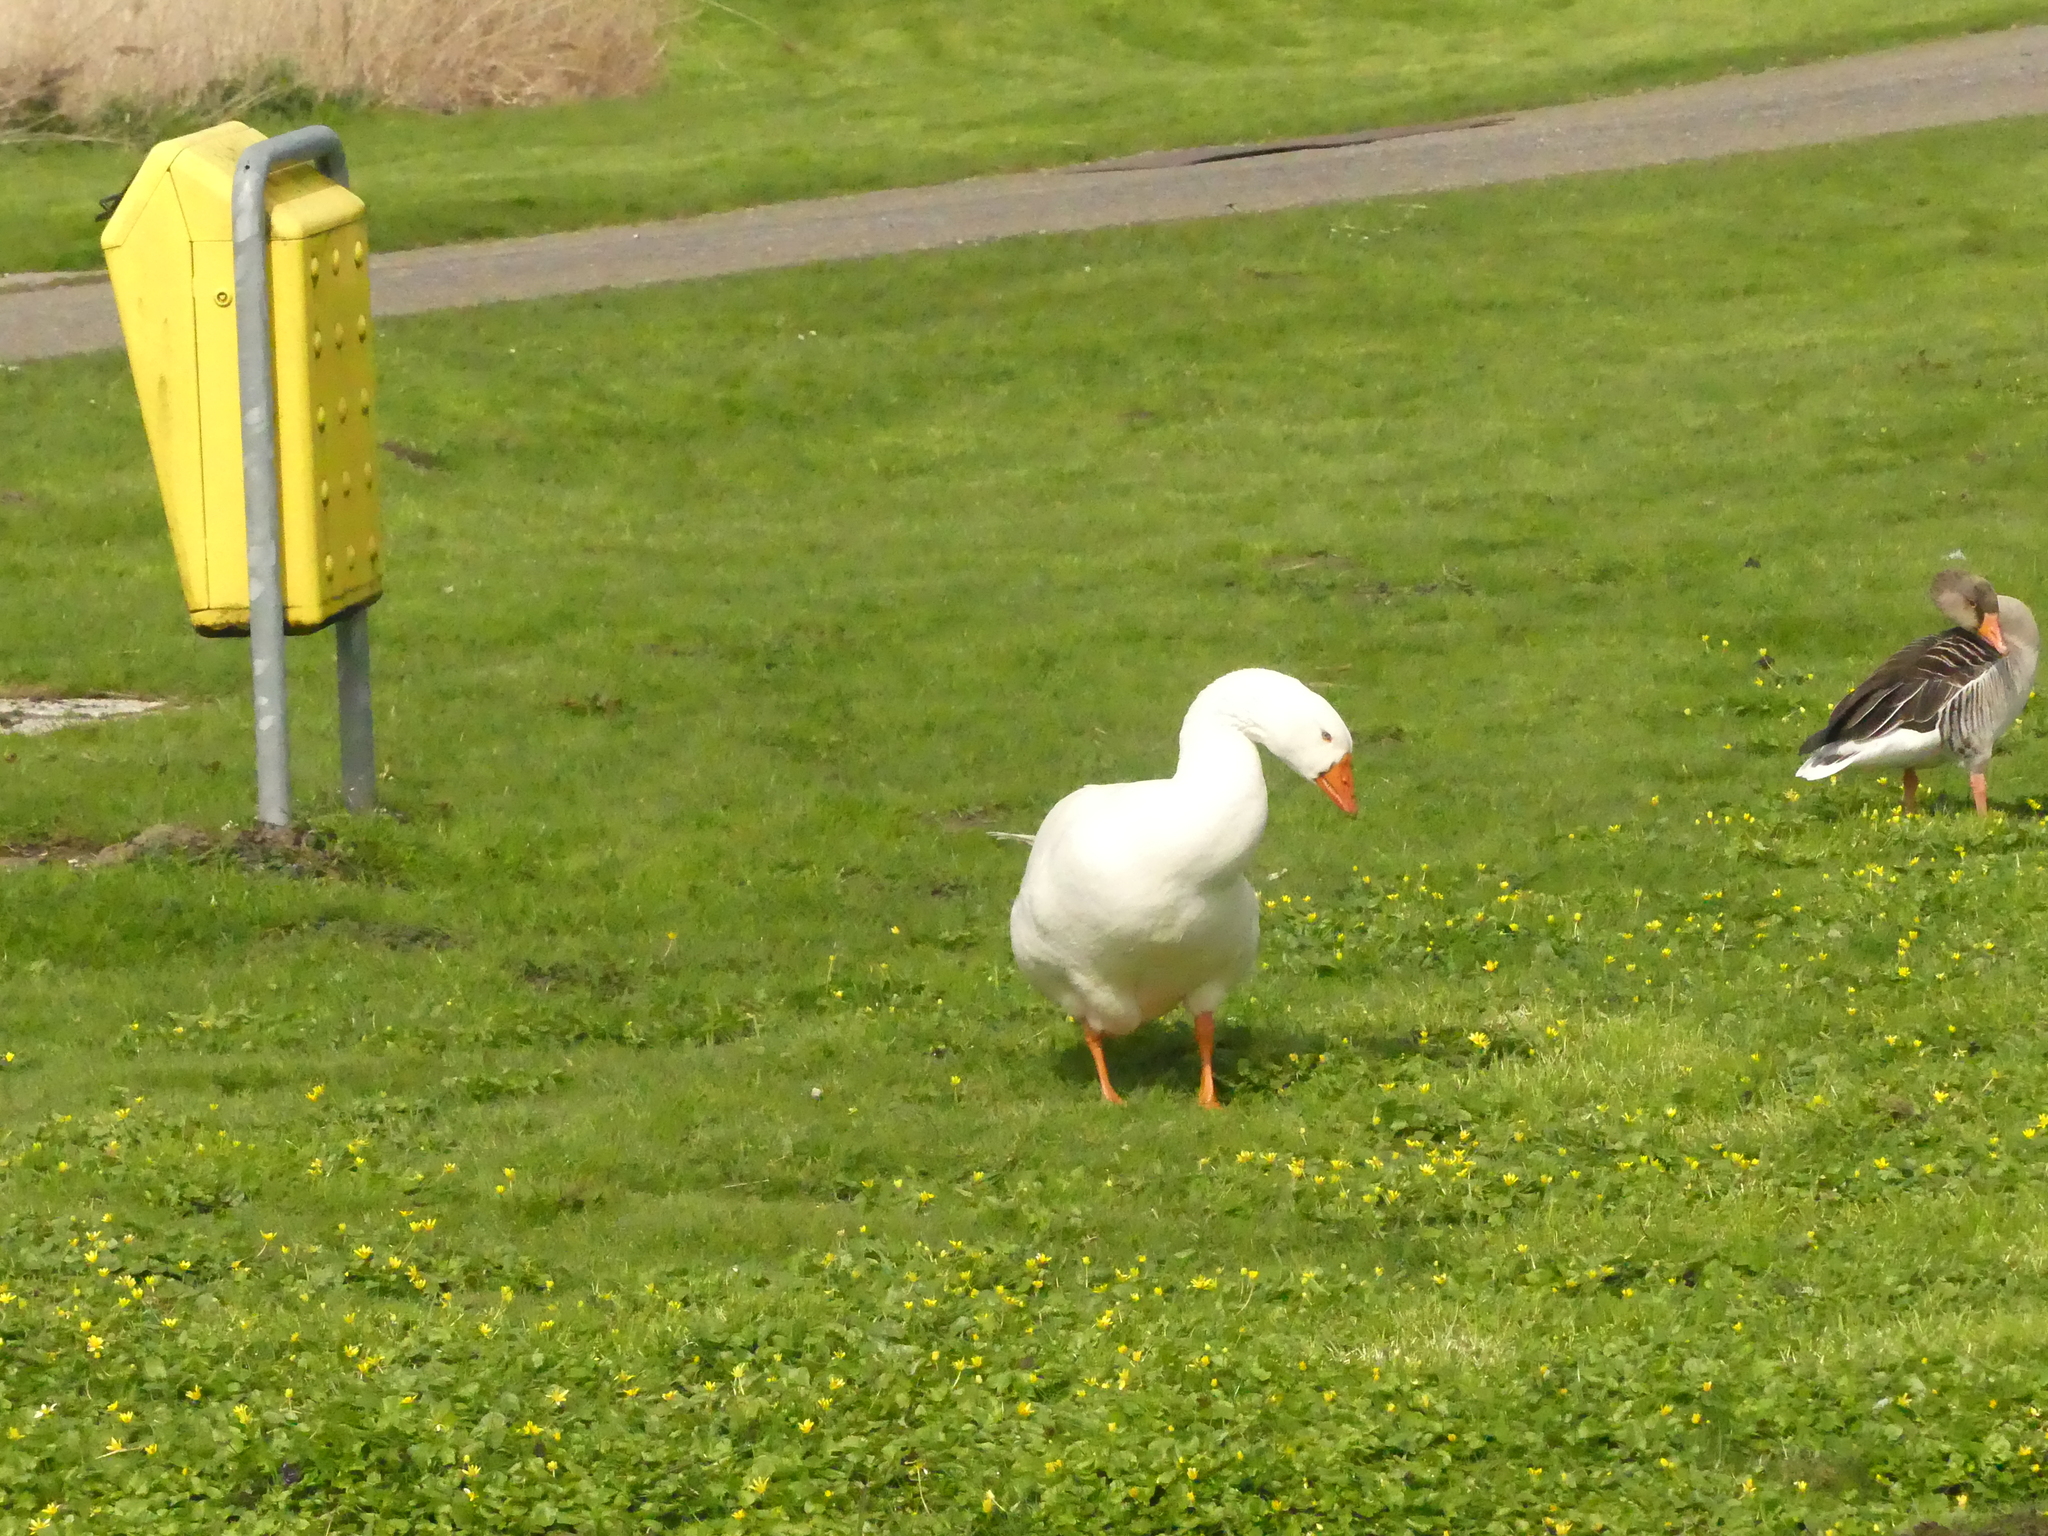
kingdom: Animalia
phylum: Chordata
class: Aves
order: Anseriformes
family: Anatidae
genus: Anser
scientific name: Anser anser
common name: Greylag goose
